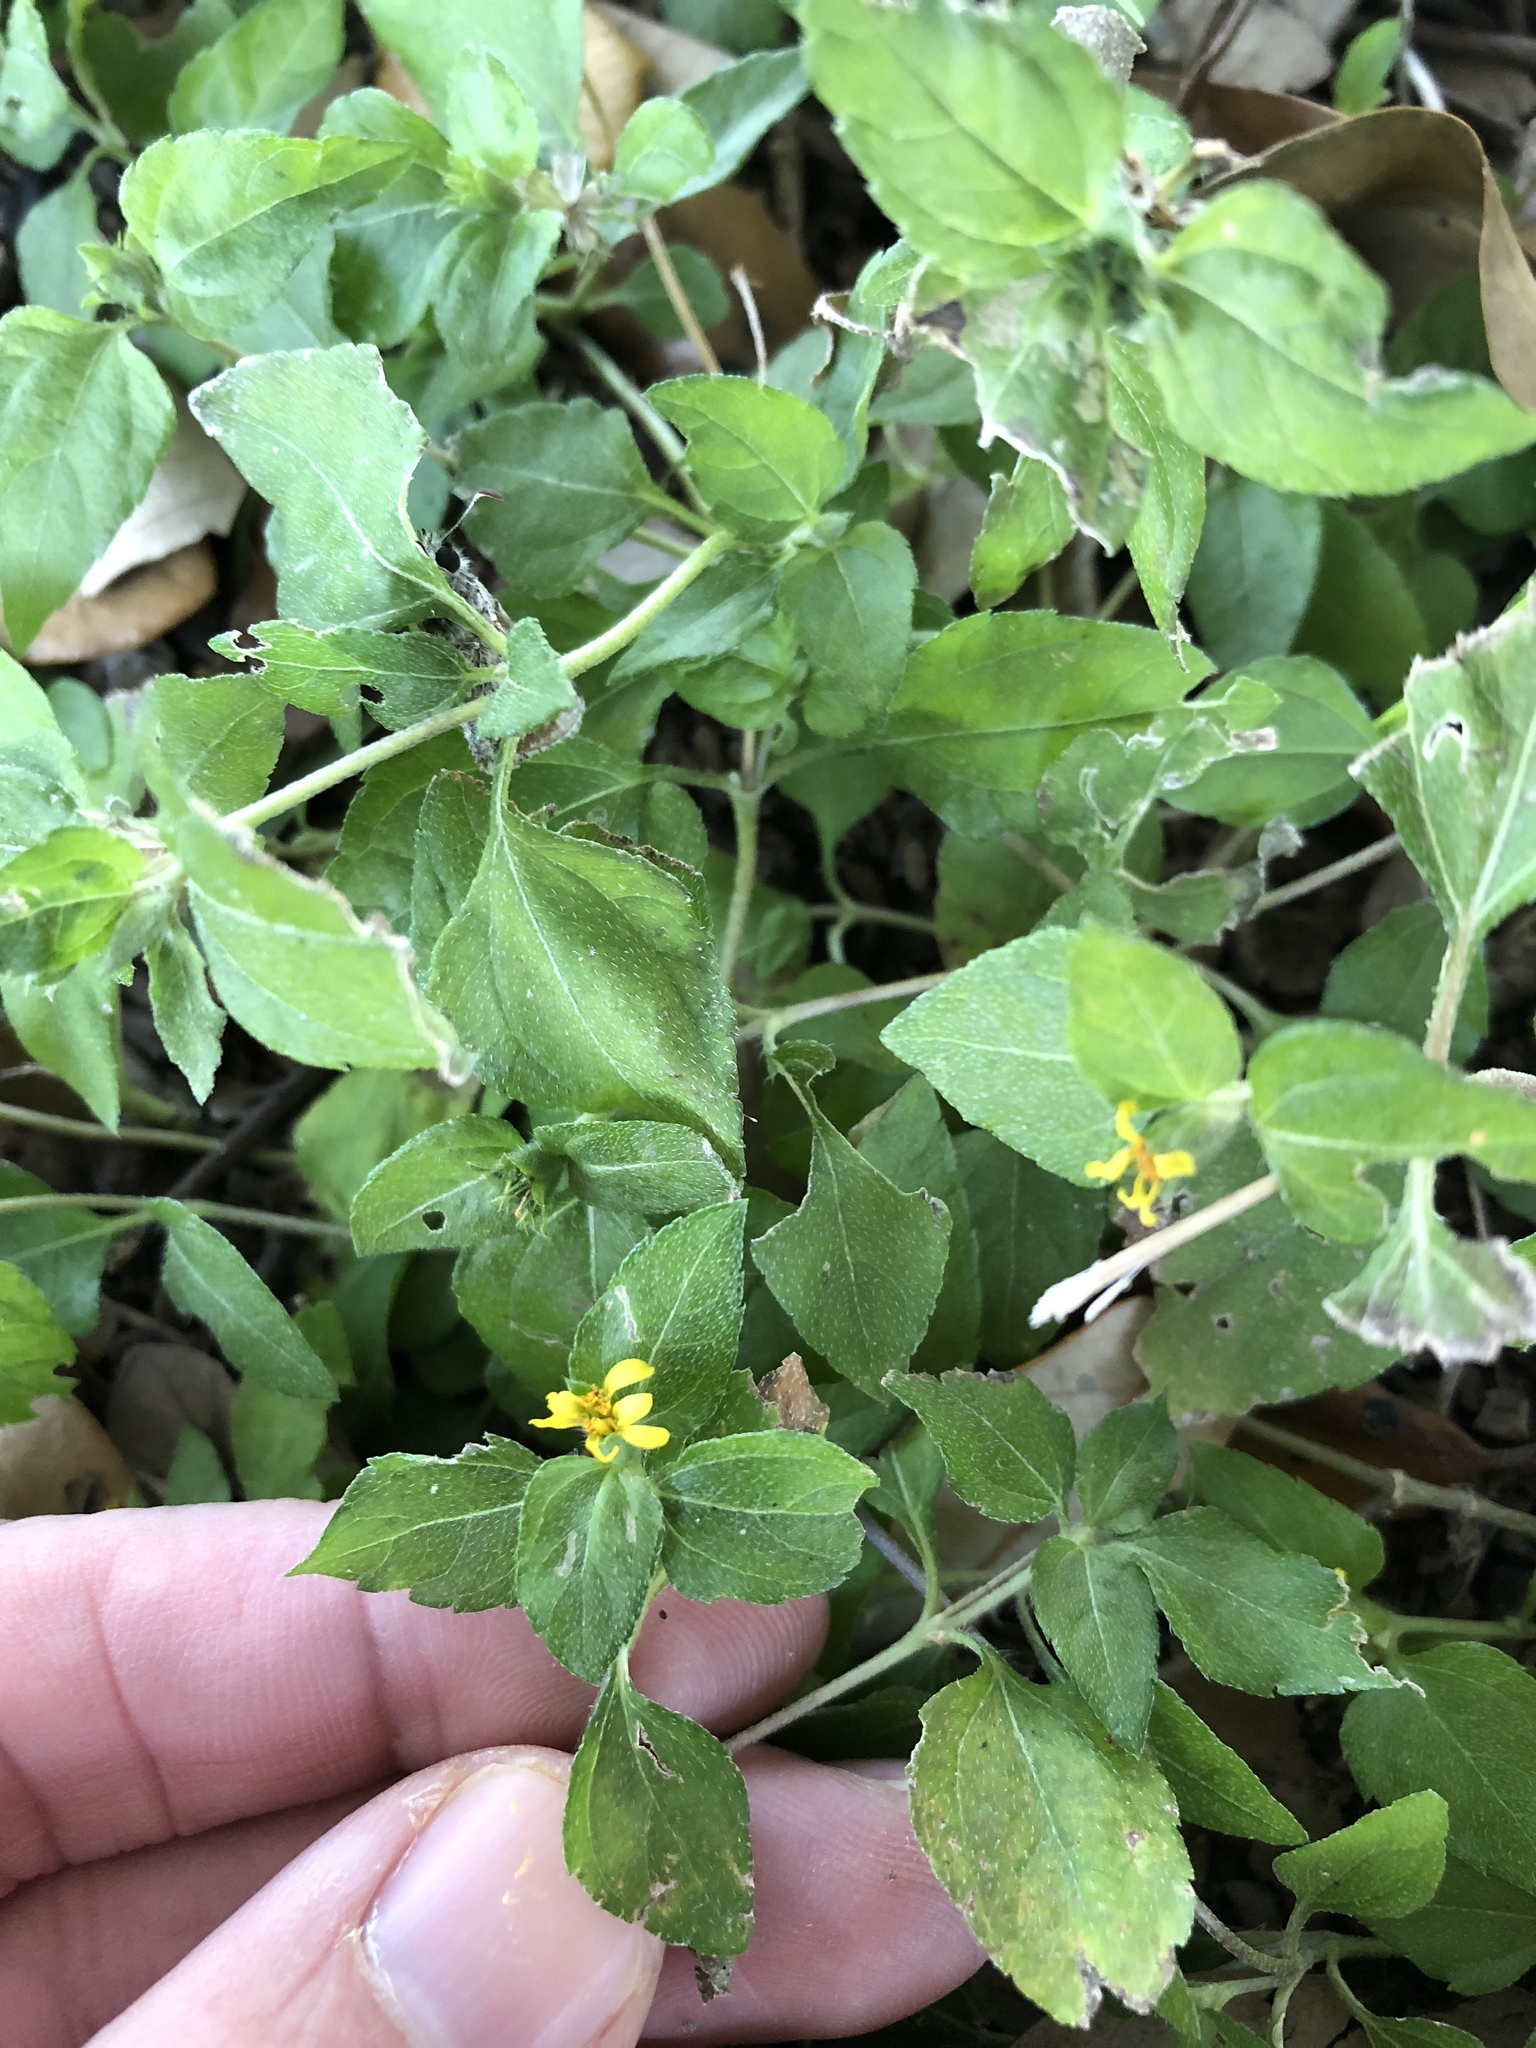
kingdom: Plantae
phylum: Tracheophyta
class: Magnoliopsida
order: Asterales
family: Asteraceae
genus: Calyptocarpus
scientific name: Calyptocarpus vialis
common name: Straggler daisy
